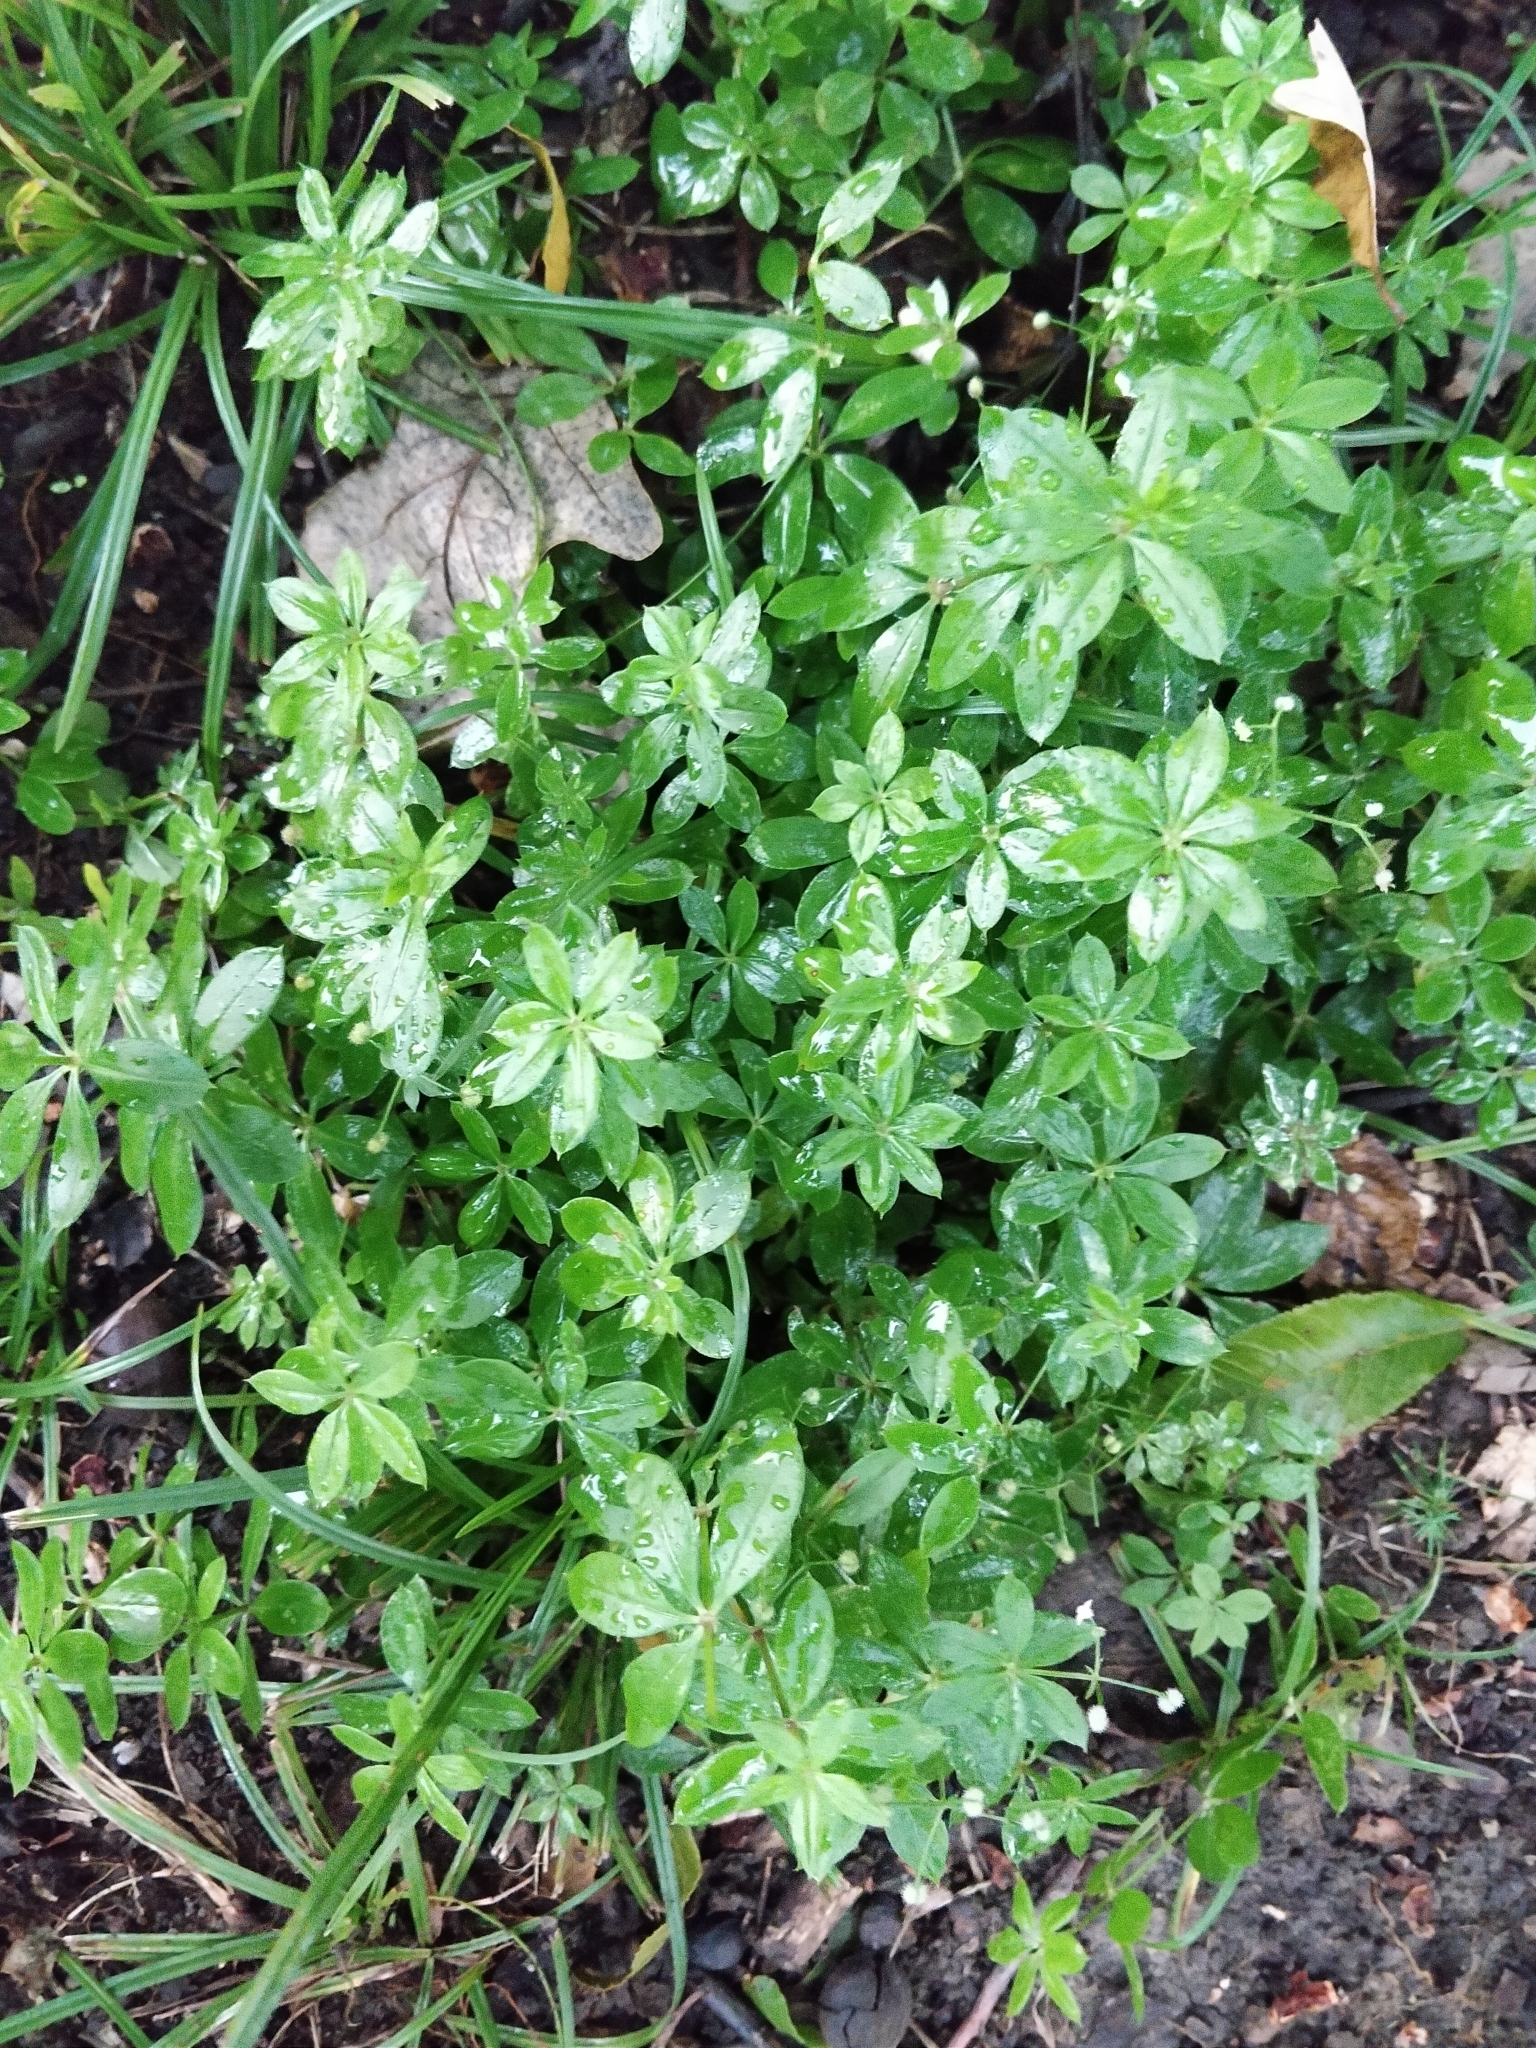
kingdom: Plantae
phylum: Tracheophyta
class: Magnoliopsida
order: Gentianales
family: Rubiaceae
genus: Galium
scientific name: Galium triflorum
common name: Fragrant bedstraw
